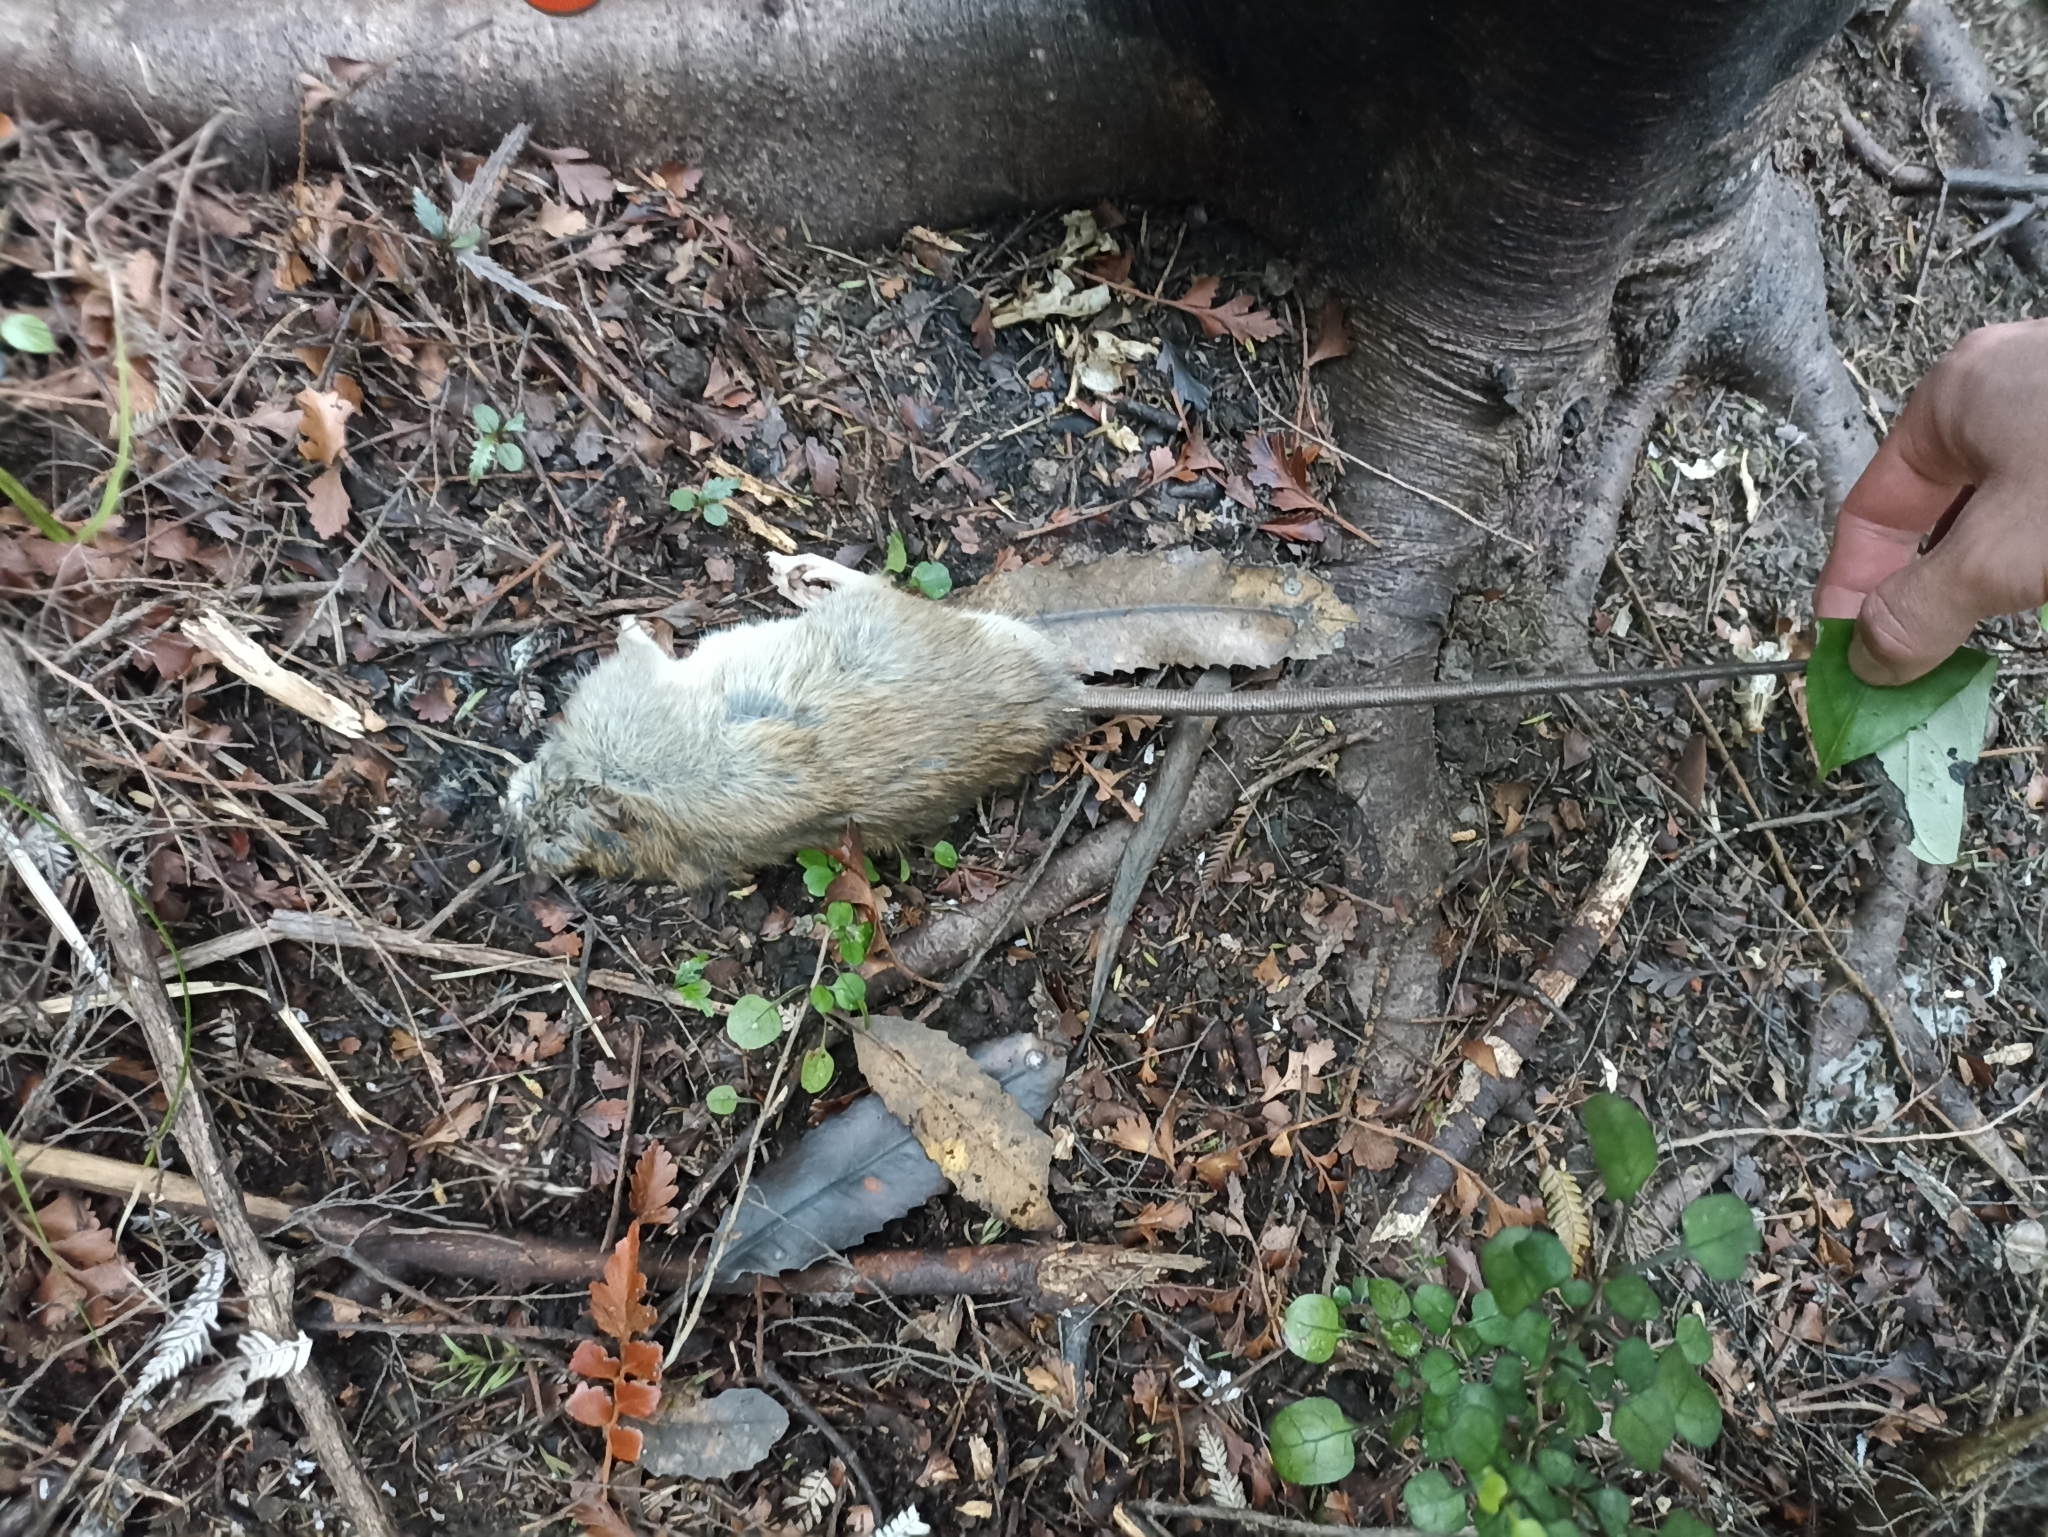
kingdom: Animalia
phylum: Chordata
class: Mammalia
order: Rodentia
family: Muridae
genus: Rattus
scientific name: Rattus rattus
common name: Black rat
